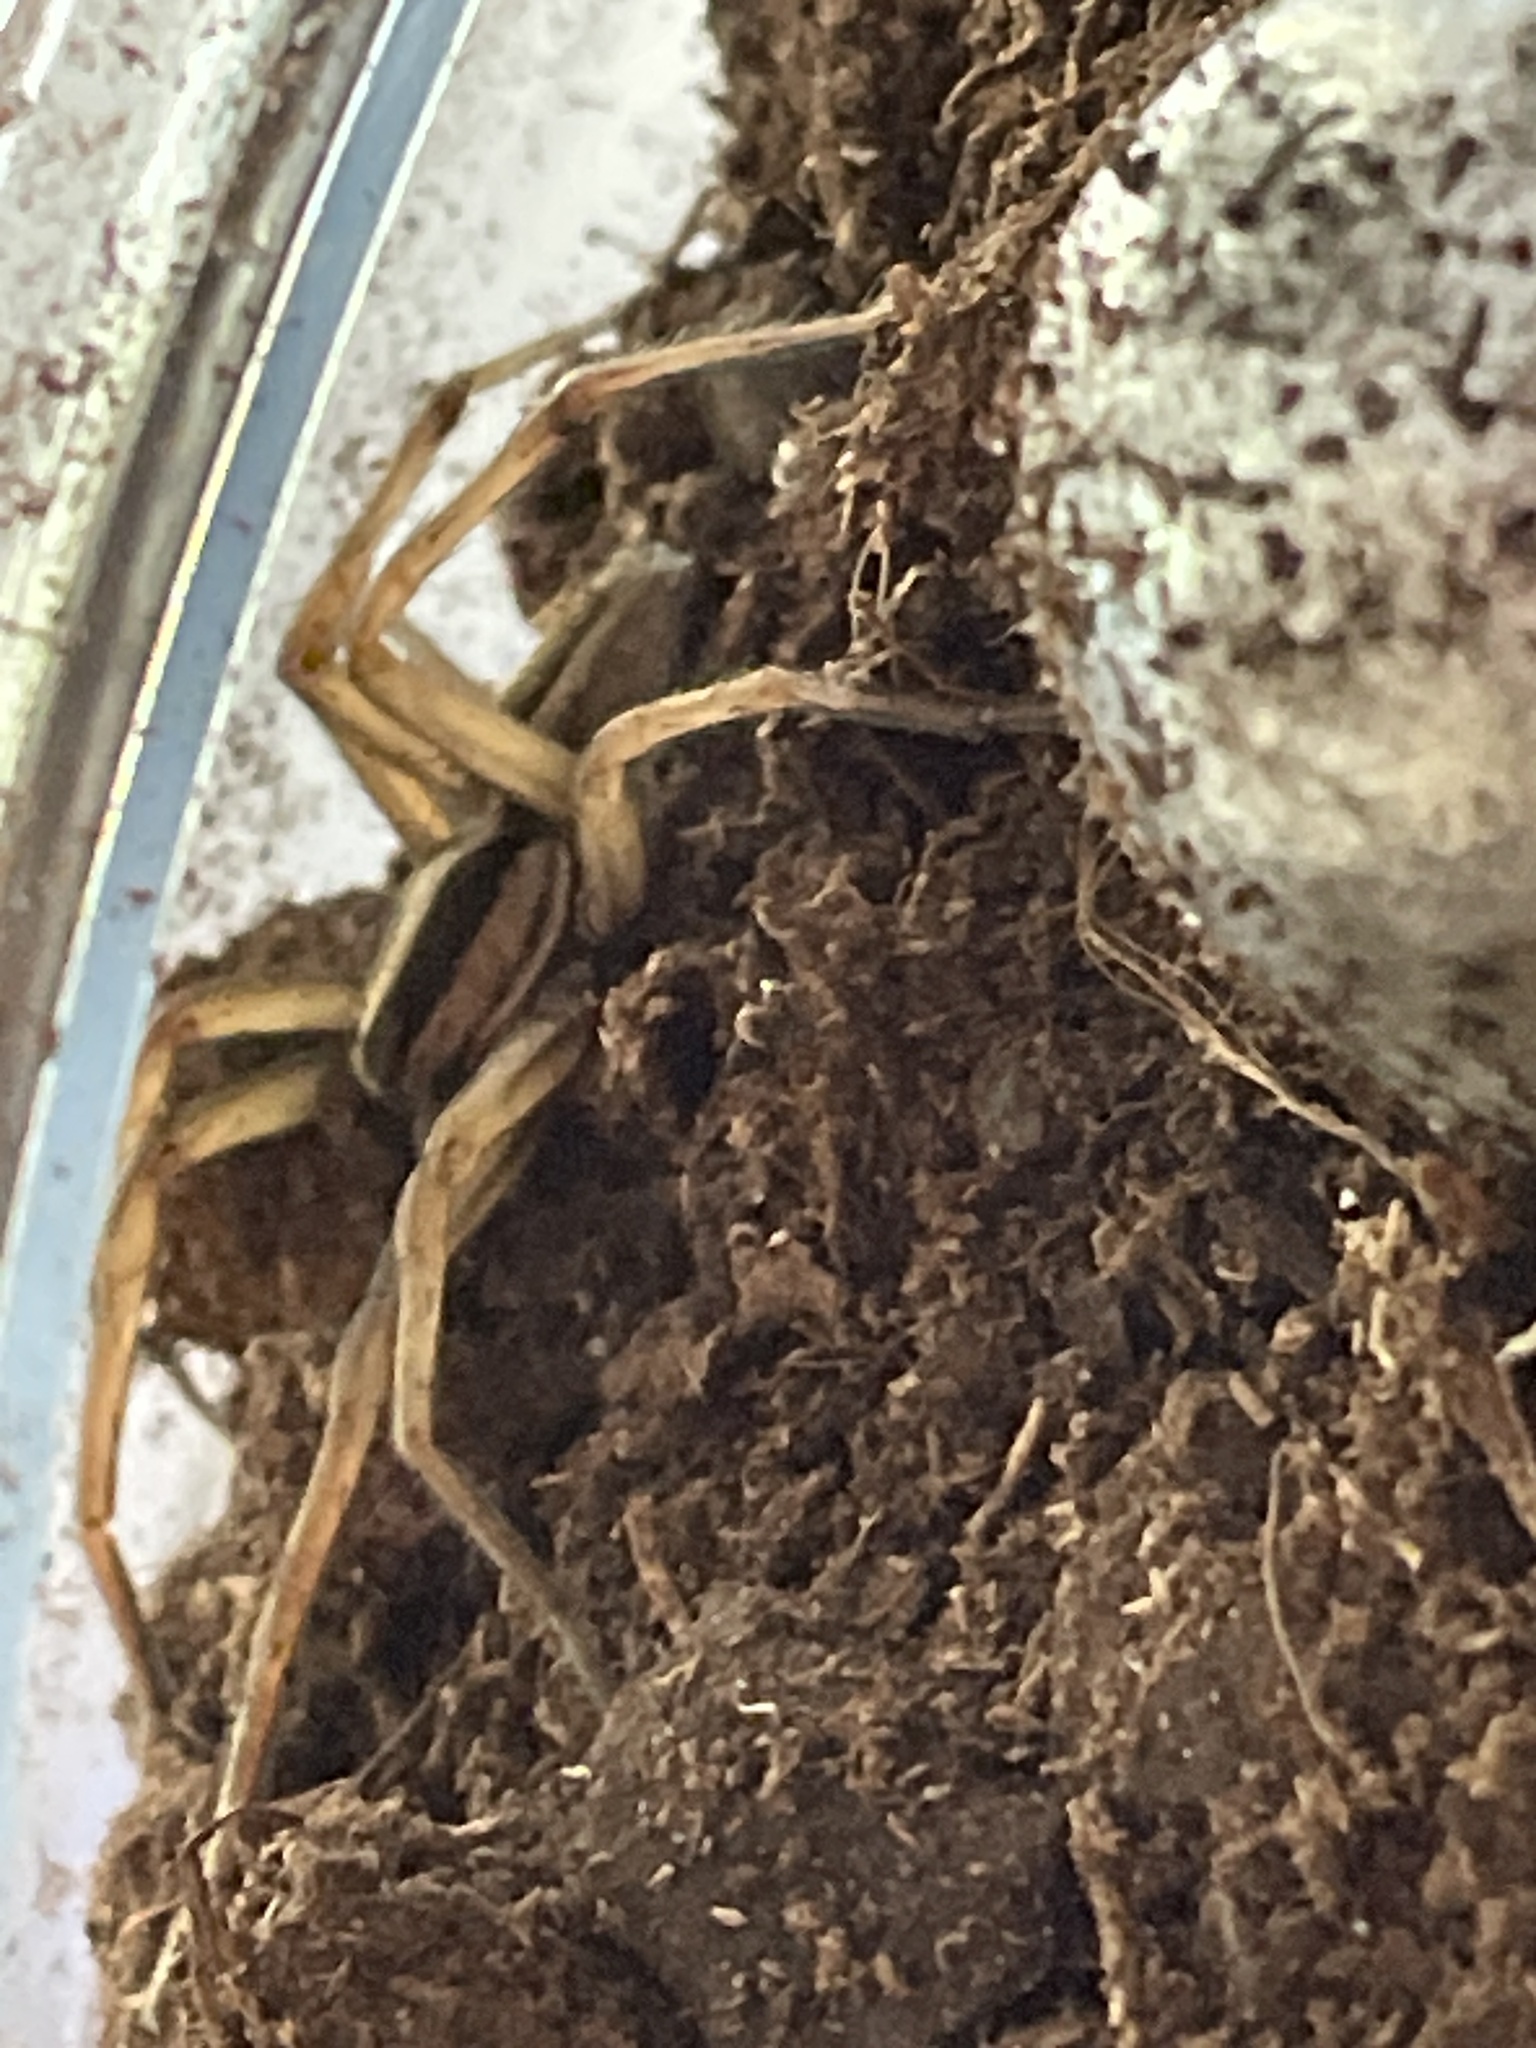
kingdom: Animalia
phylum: Arthropoda
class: Arachnida
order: Araneae
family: Lycosidae
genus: Rabidosa
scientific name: Rabidosa
